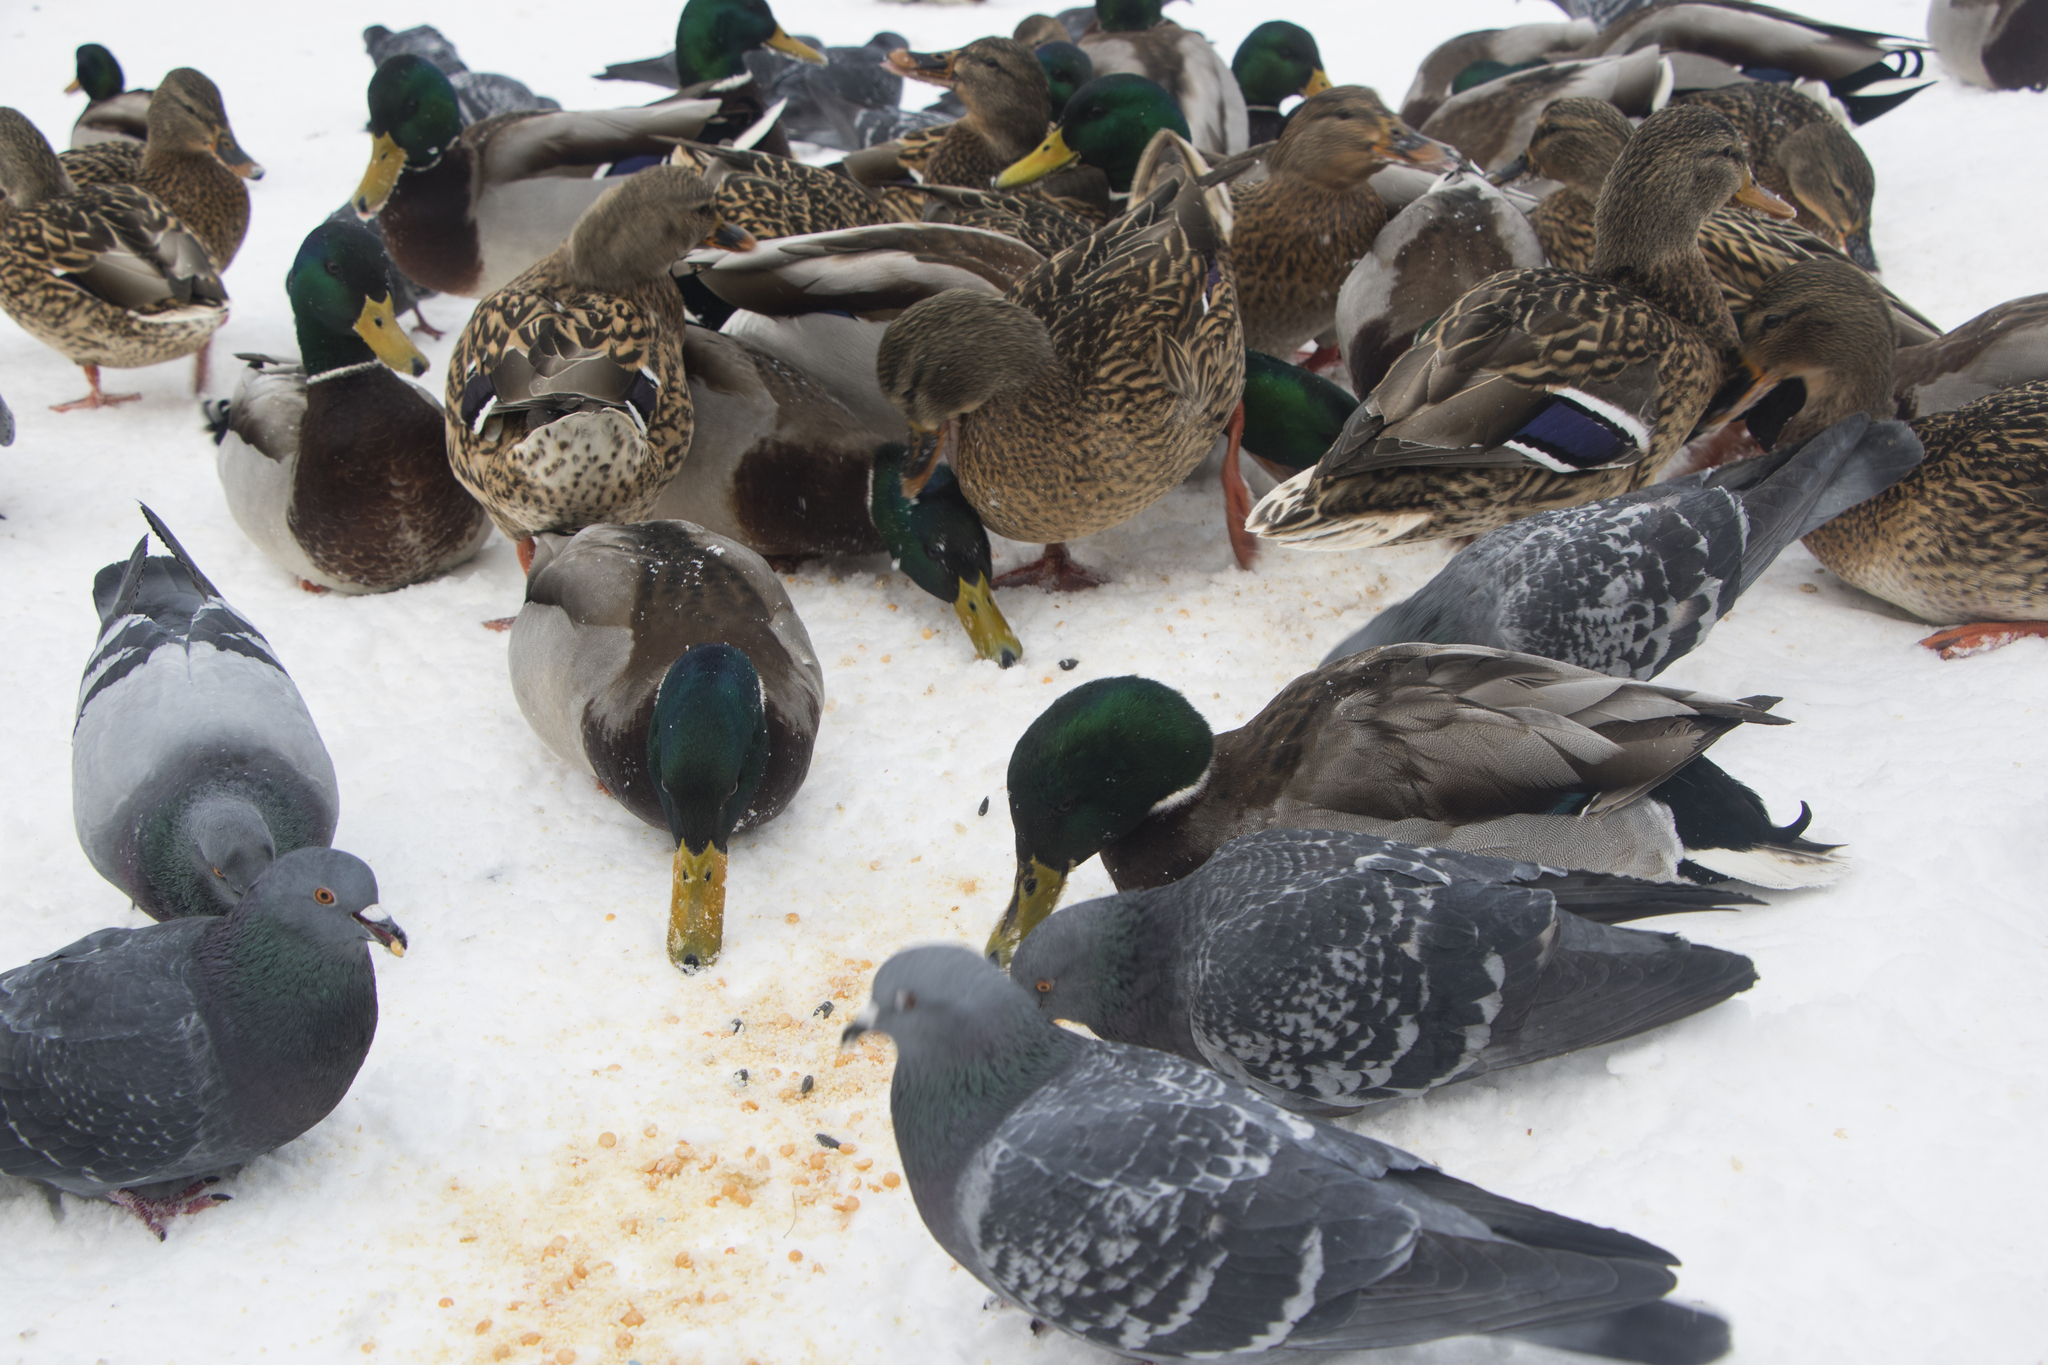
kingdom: Animalia
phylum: Chordata
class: Aves
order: Columbiformes
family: Columbidae
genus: Columba
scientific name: Columba livia
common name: Rock pigeon
